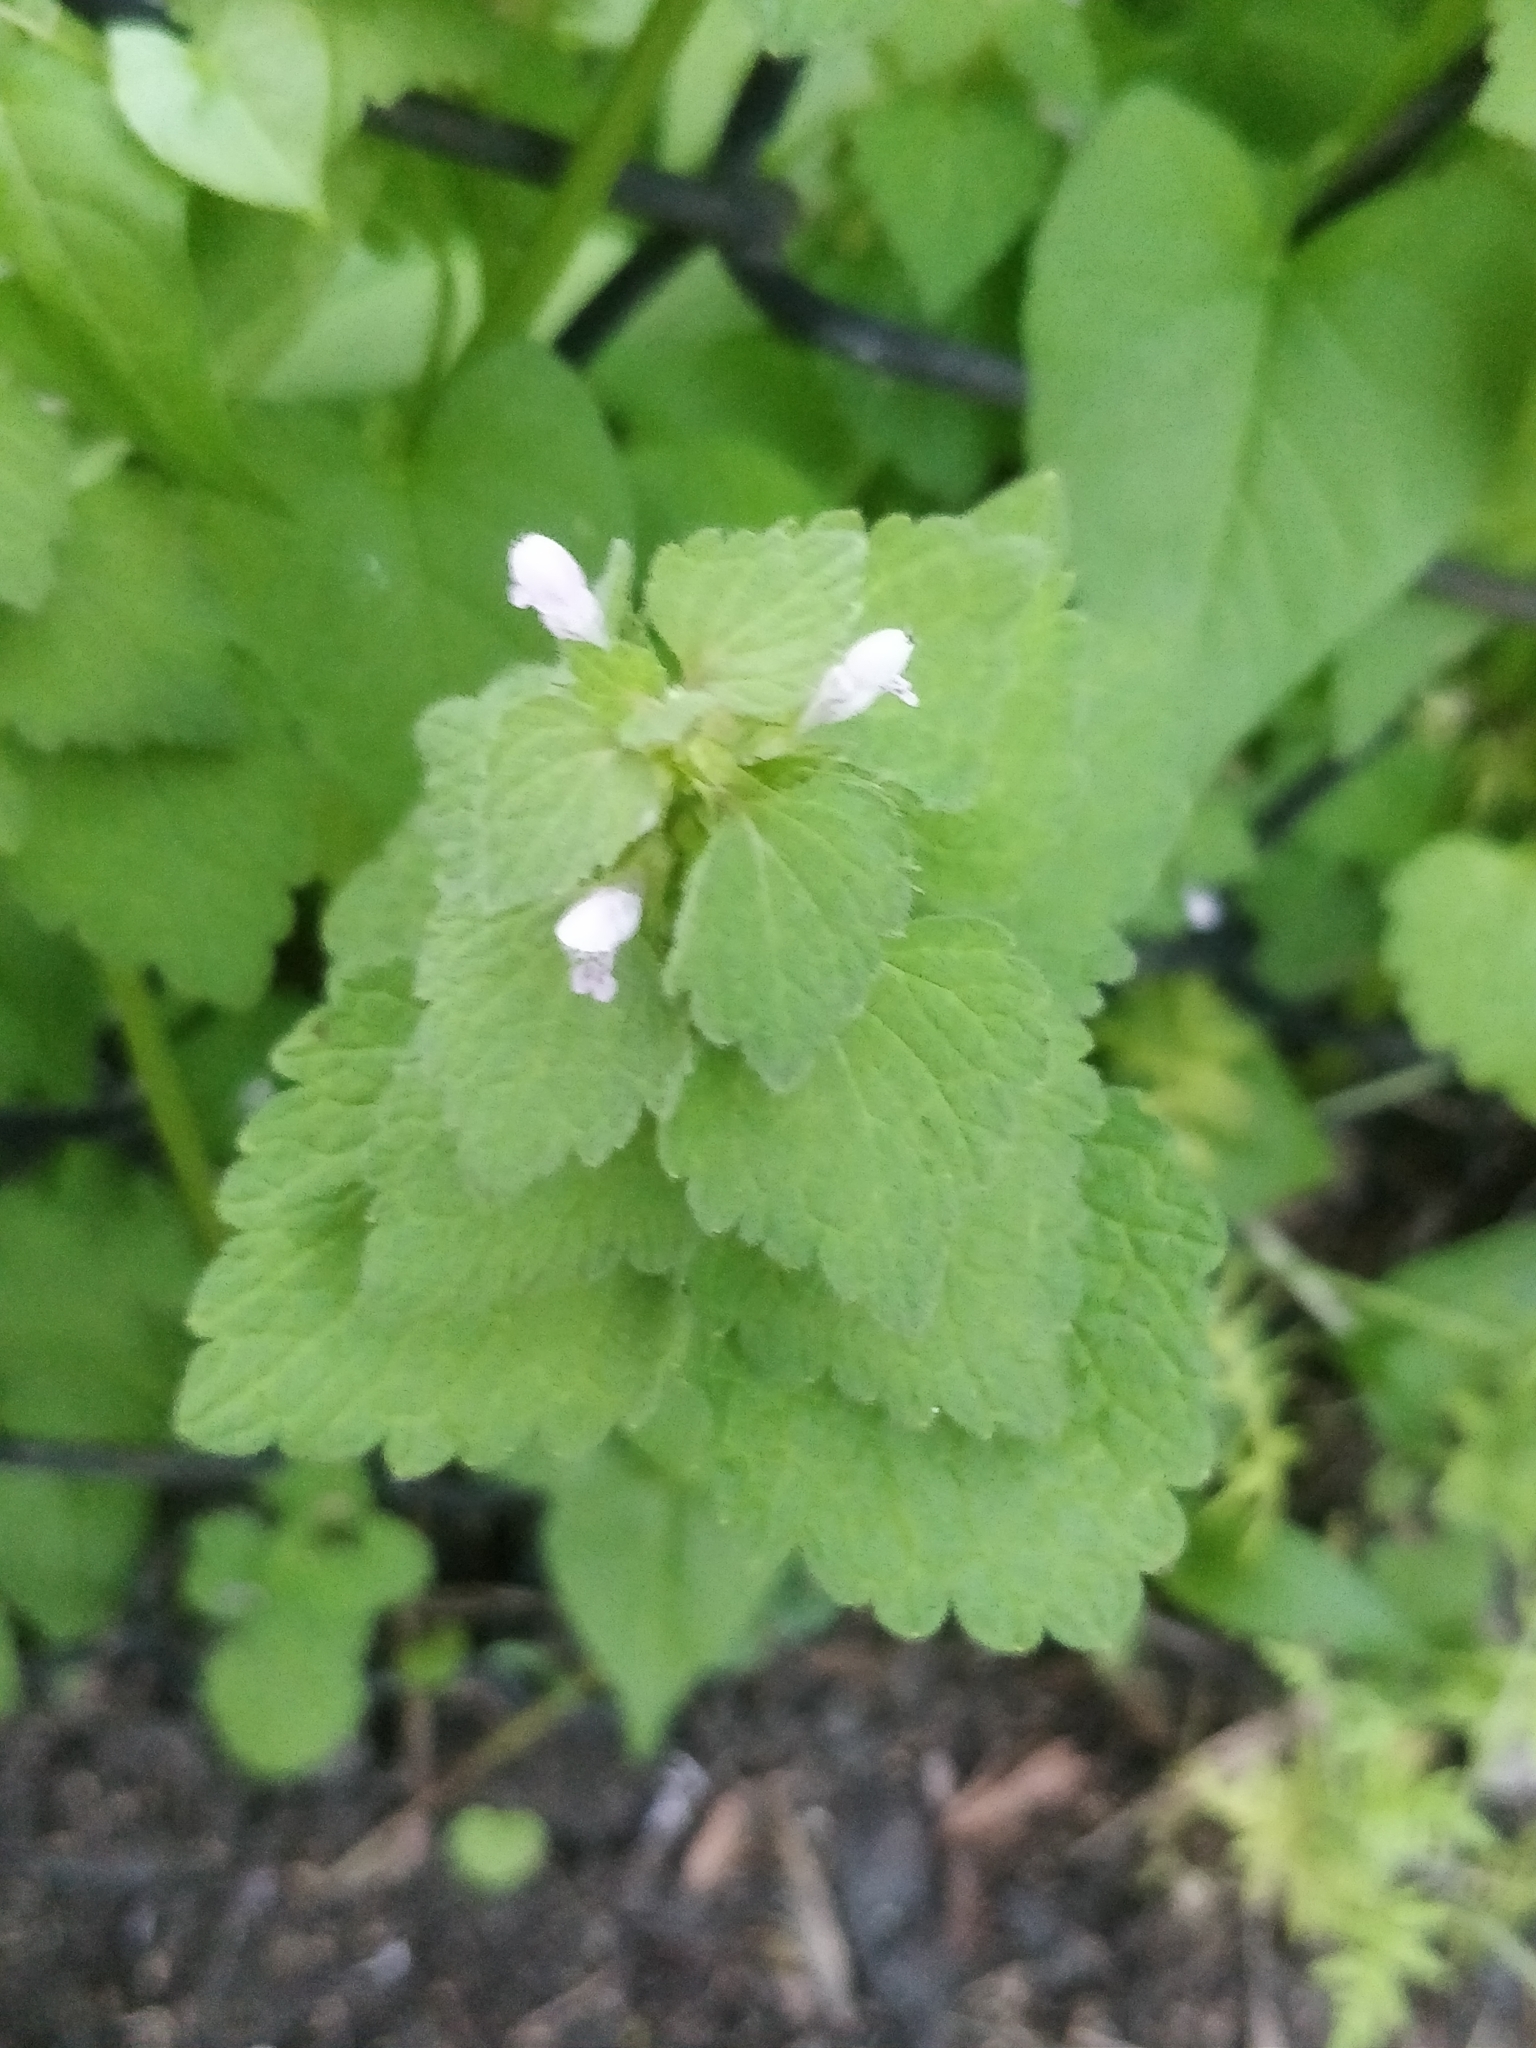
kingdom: Plantae
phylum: Tracheophyta
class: Magnoliopsida
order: Lamiales
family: Lamiaceae
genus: Lamium
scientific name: Lamium purpureum
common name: Red dead-nettle
